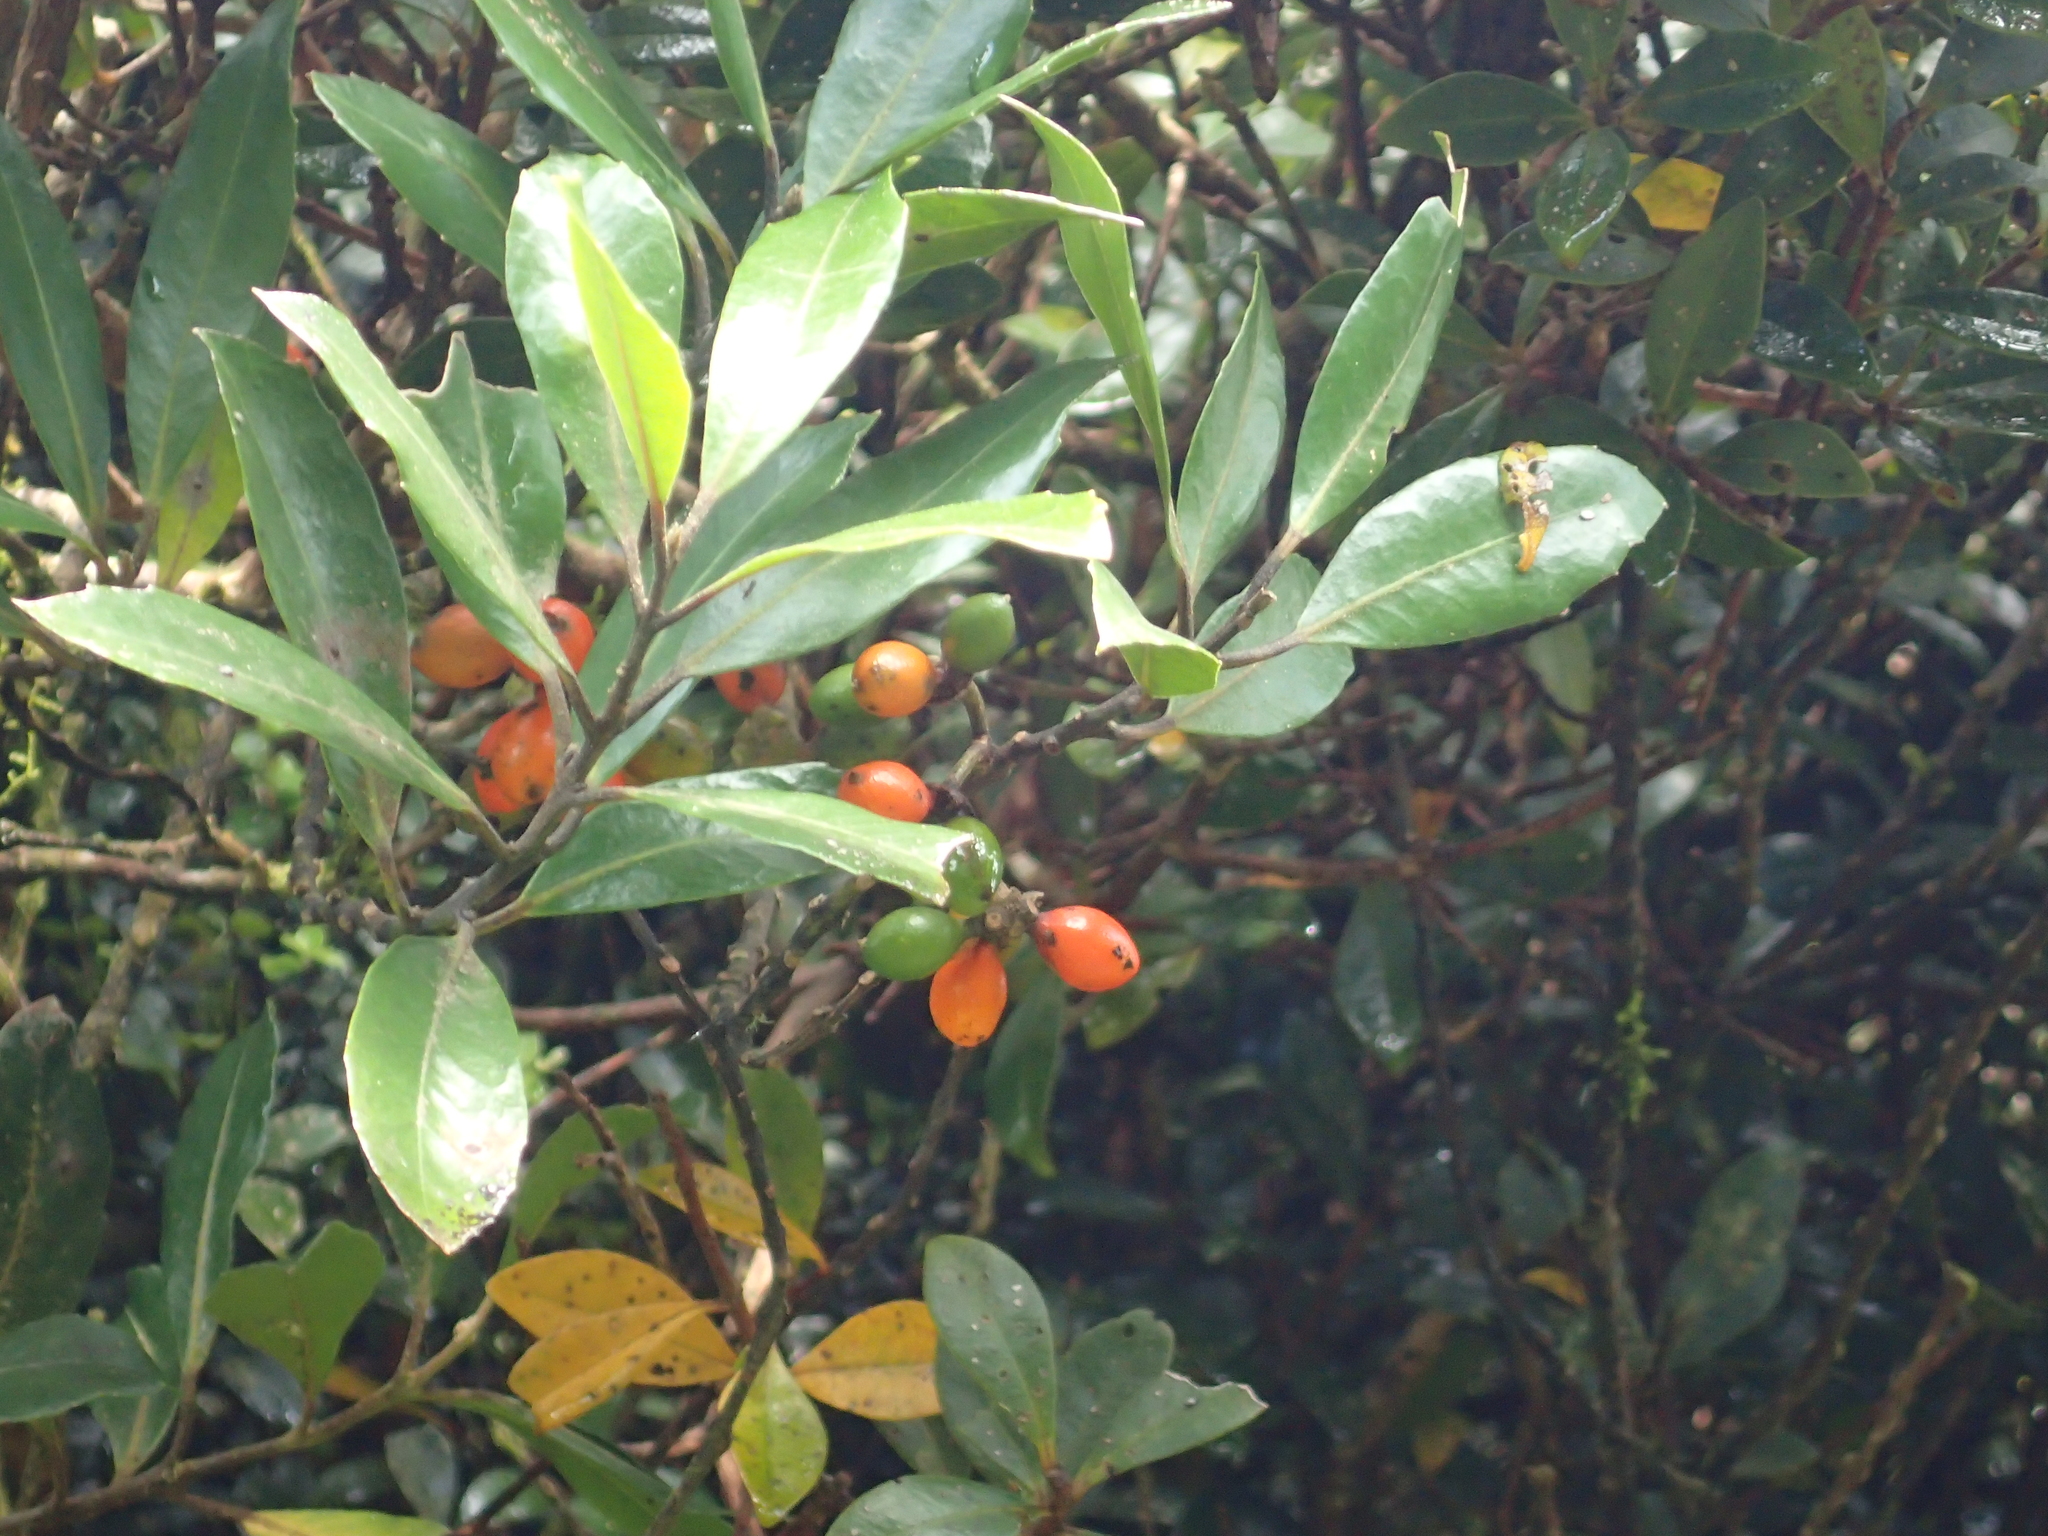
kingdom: Plantae
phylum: Tracheophyta
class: Magnoliopsida
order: Laurales
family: Monimiaceae
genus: Hedycarya
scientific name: Hedycarya arborea
